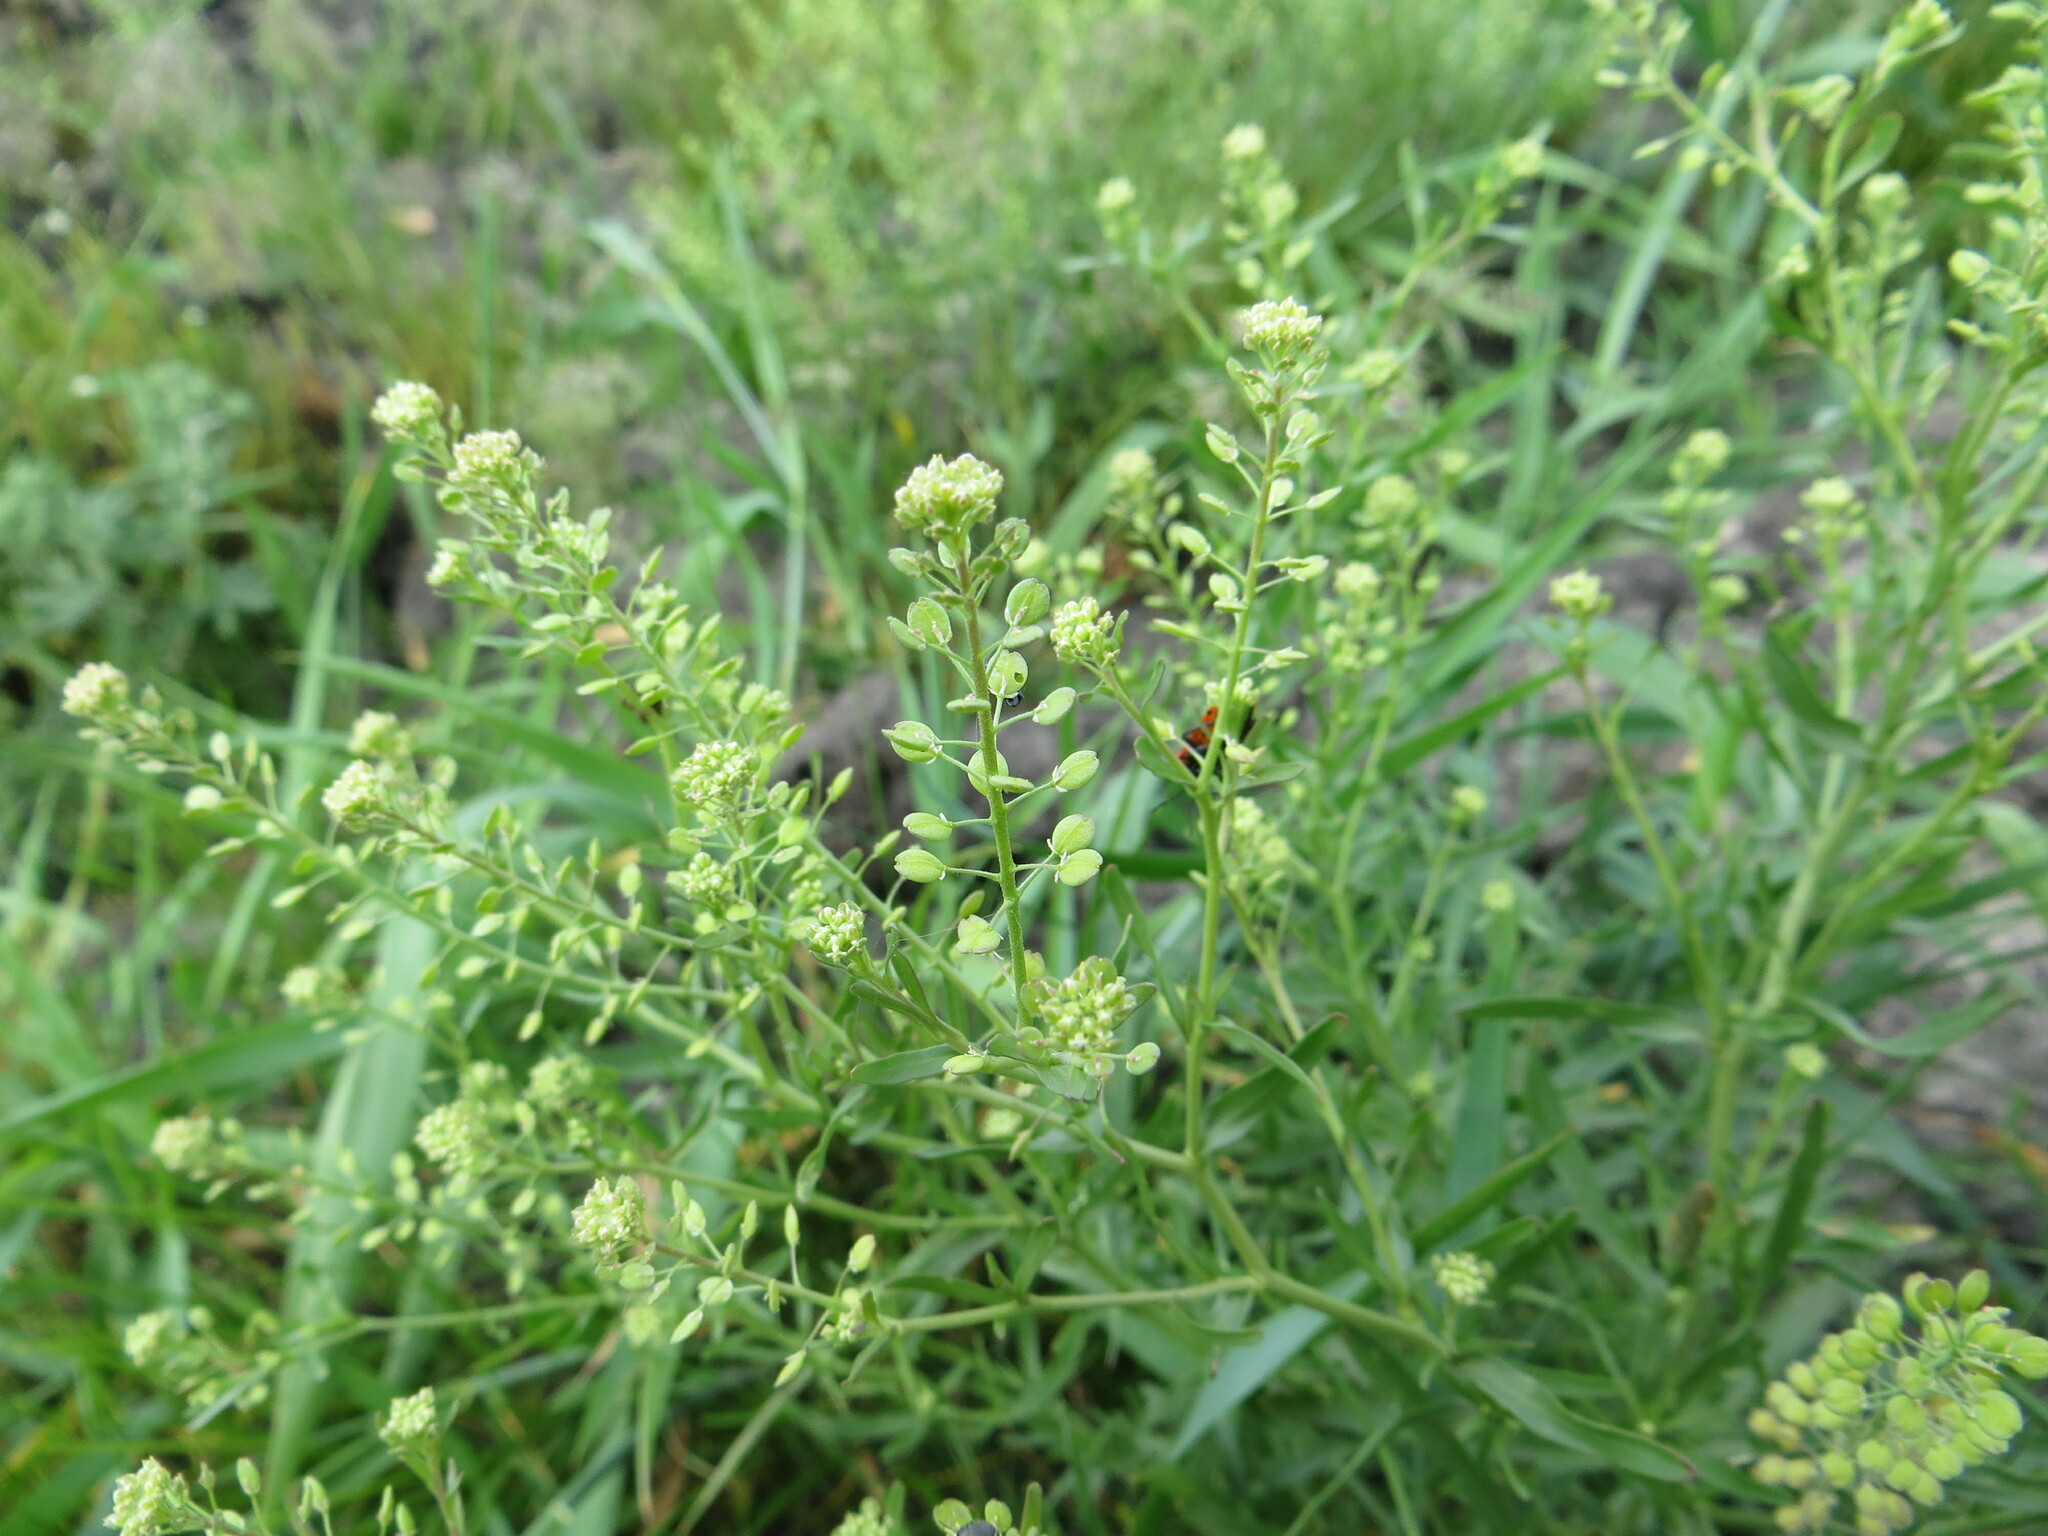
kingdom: Plantae
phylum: Tracheophyta
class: Magnoliopsida
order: Brassicales
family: Brassicaceae
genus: Lepidium
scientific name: Lepidium ruderale
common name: Narrow-leaved pepperwort
